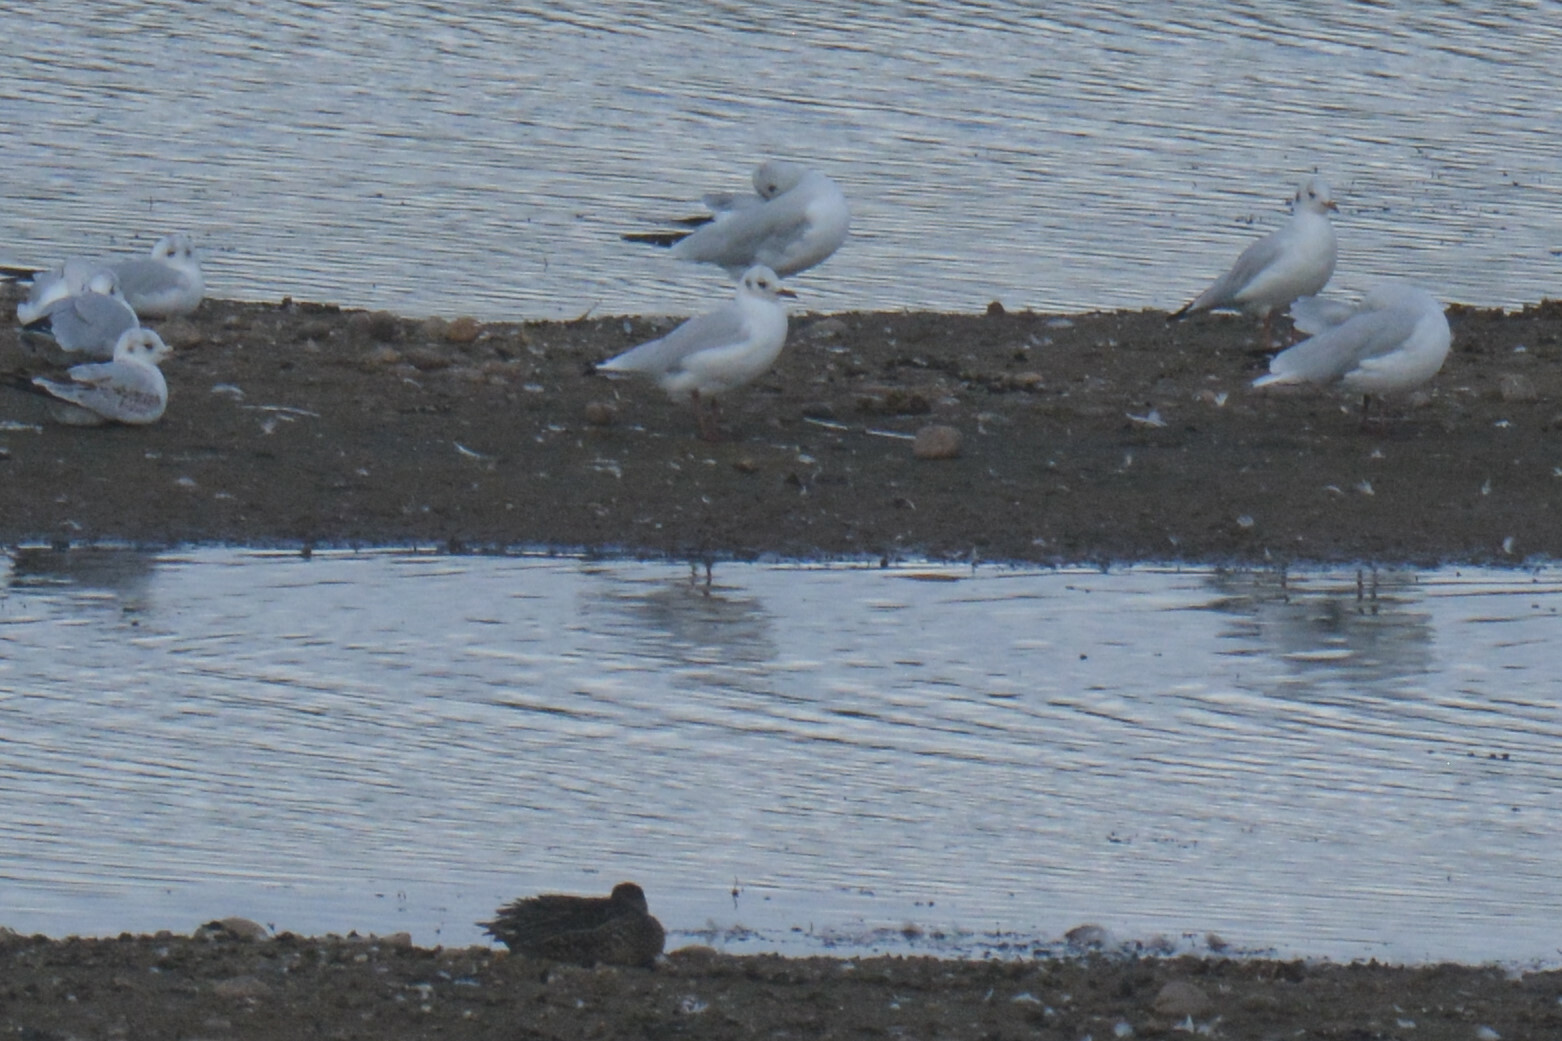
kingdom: Animalia
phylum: Chordata
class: Aves
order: Charadriiformes
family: Laridae
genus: Chroicocephalus
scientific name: Chroicocephalus ridibundus
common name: Black-headed gull
